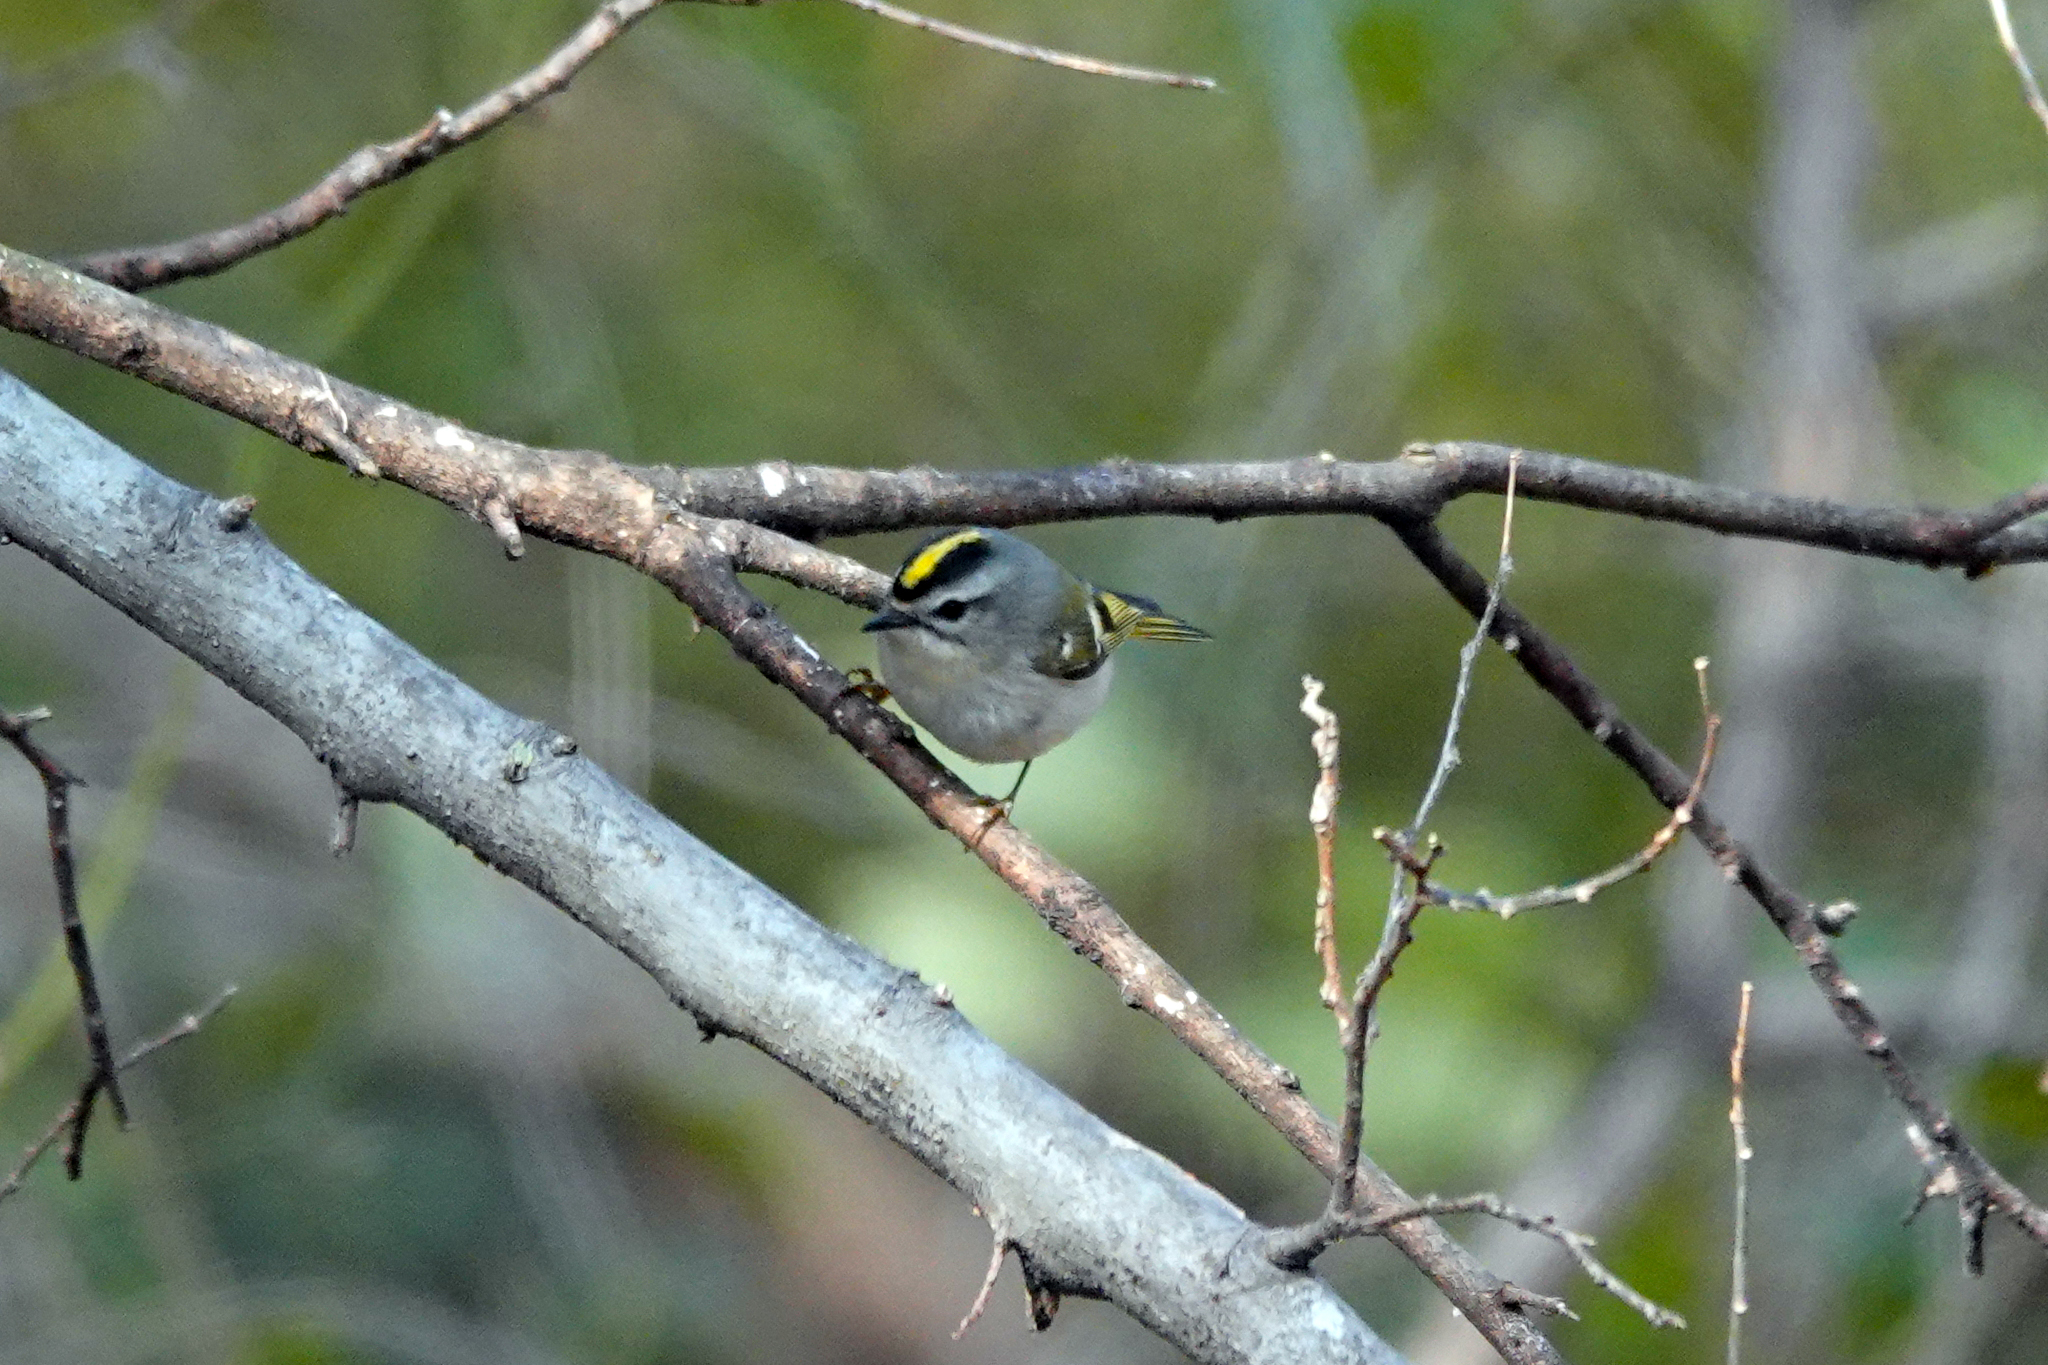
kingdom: Animalia
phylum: Chordata
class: Aves
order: Passeriformes
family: Regulidae
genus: Regulus
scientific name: Regulus satrapa
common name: Golden-crowned kinglet
